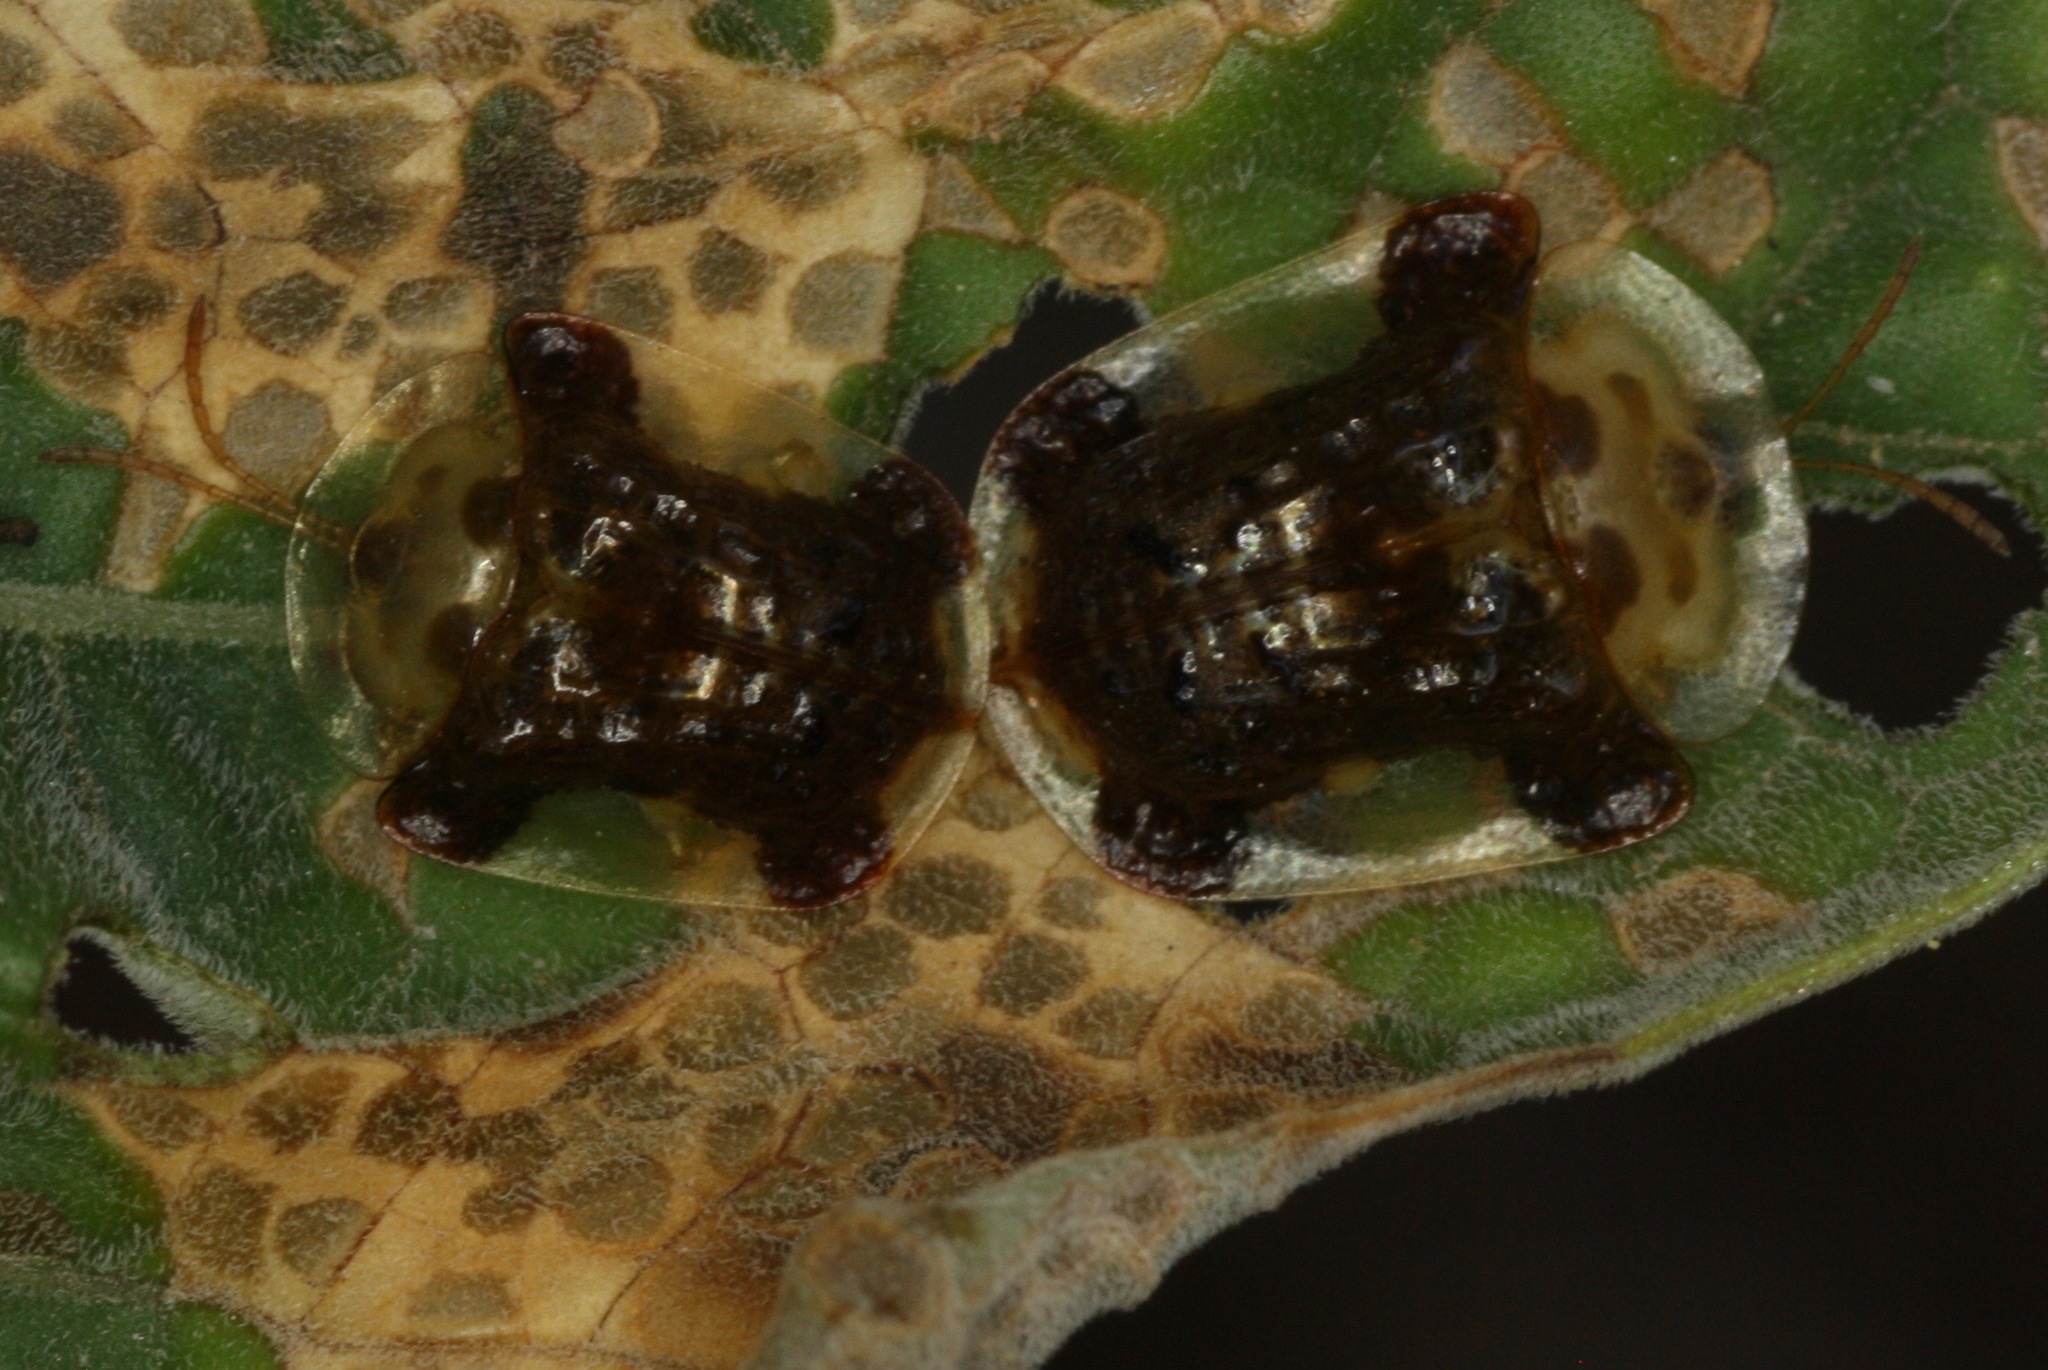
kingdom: Animalia
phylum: Arthropoda
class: Insecta
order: Coleoptera
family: Chrysomelidae
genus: Helocassis
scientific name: Helocassis clavata
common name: Clavate tortoise beetle
